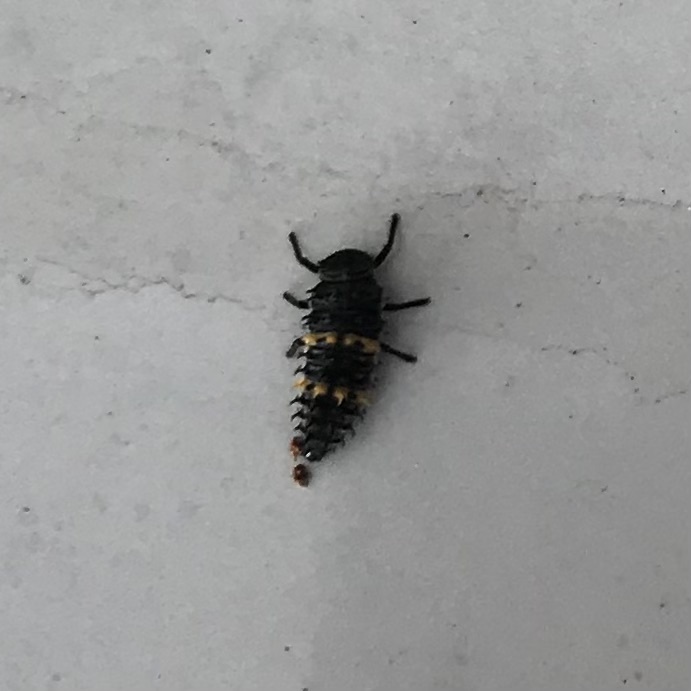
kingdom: Animalia
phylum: Arthropoda
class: Insecta
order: Coleoptera
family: Coccinellidae
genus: Harmonia
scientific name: Harmonia conformis
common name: Common spotted ladybird beetle
